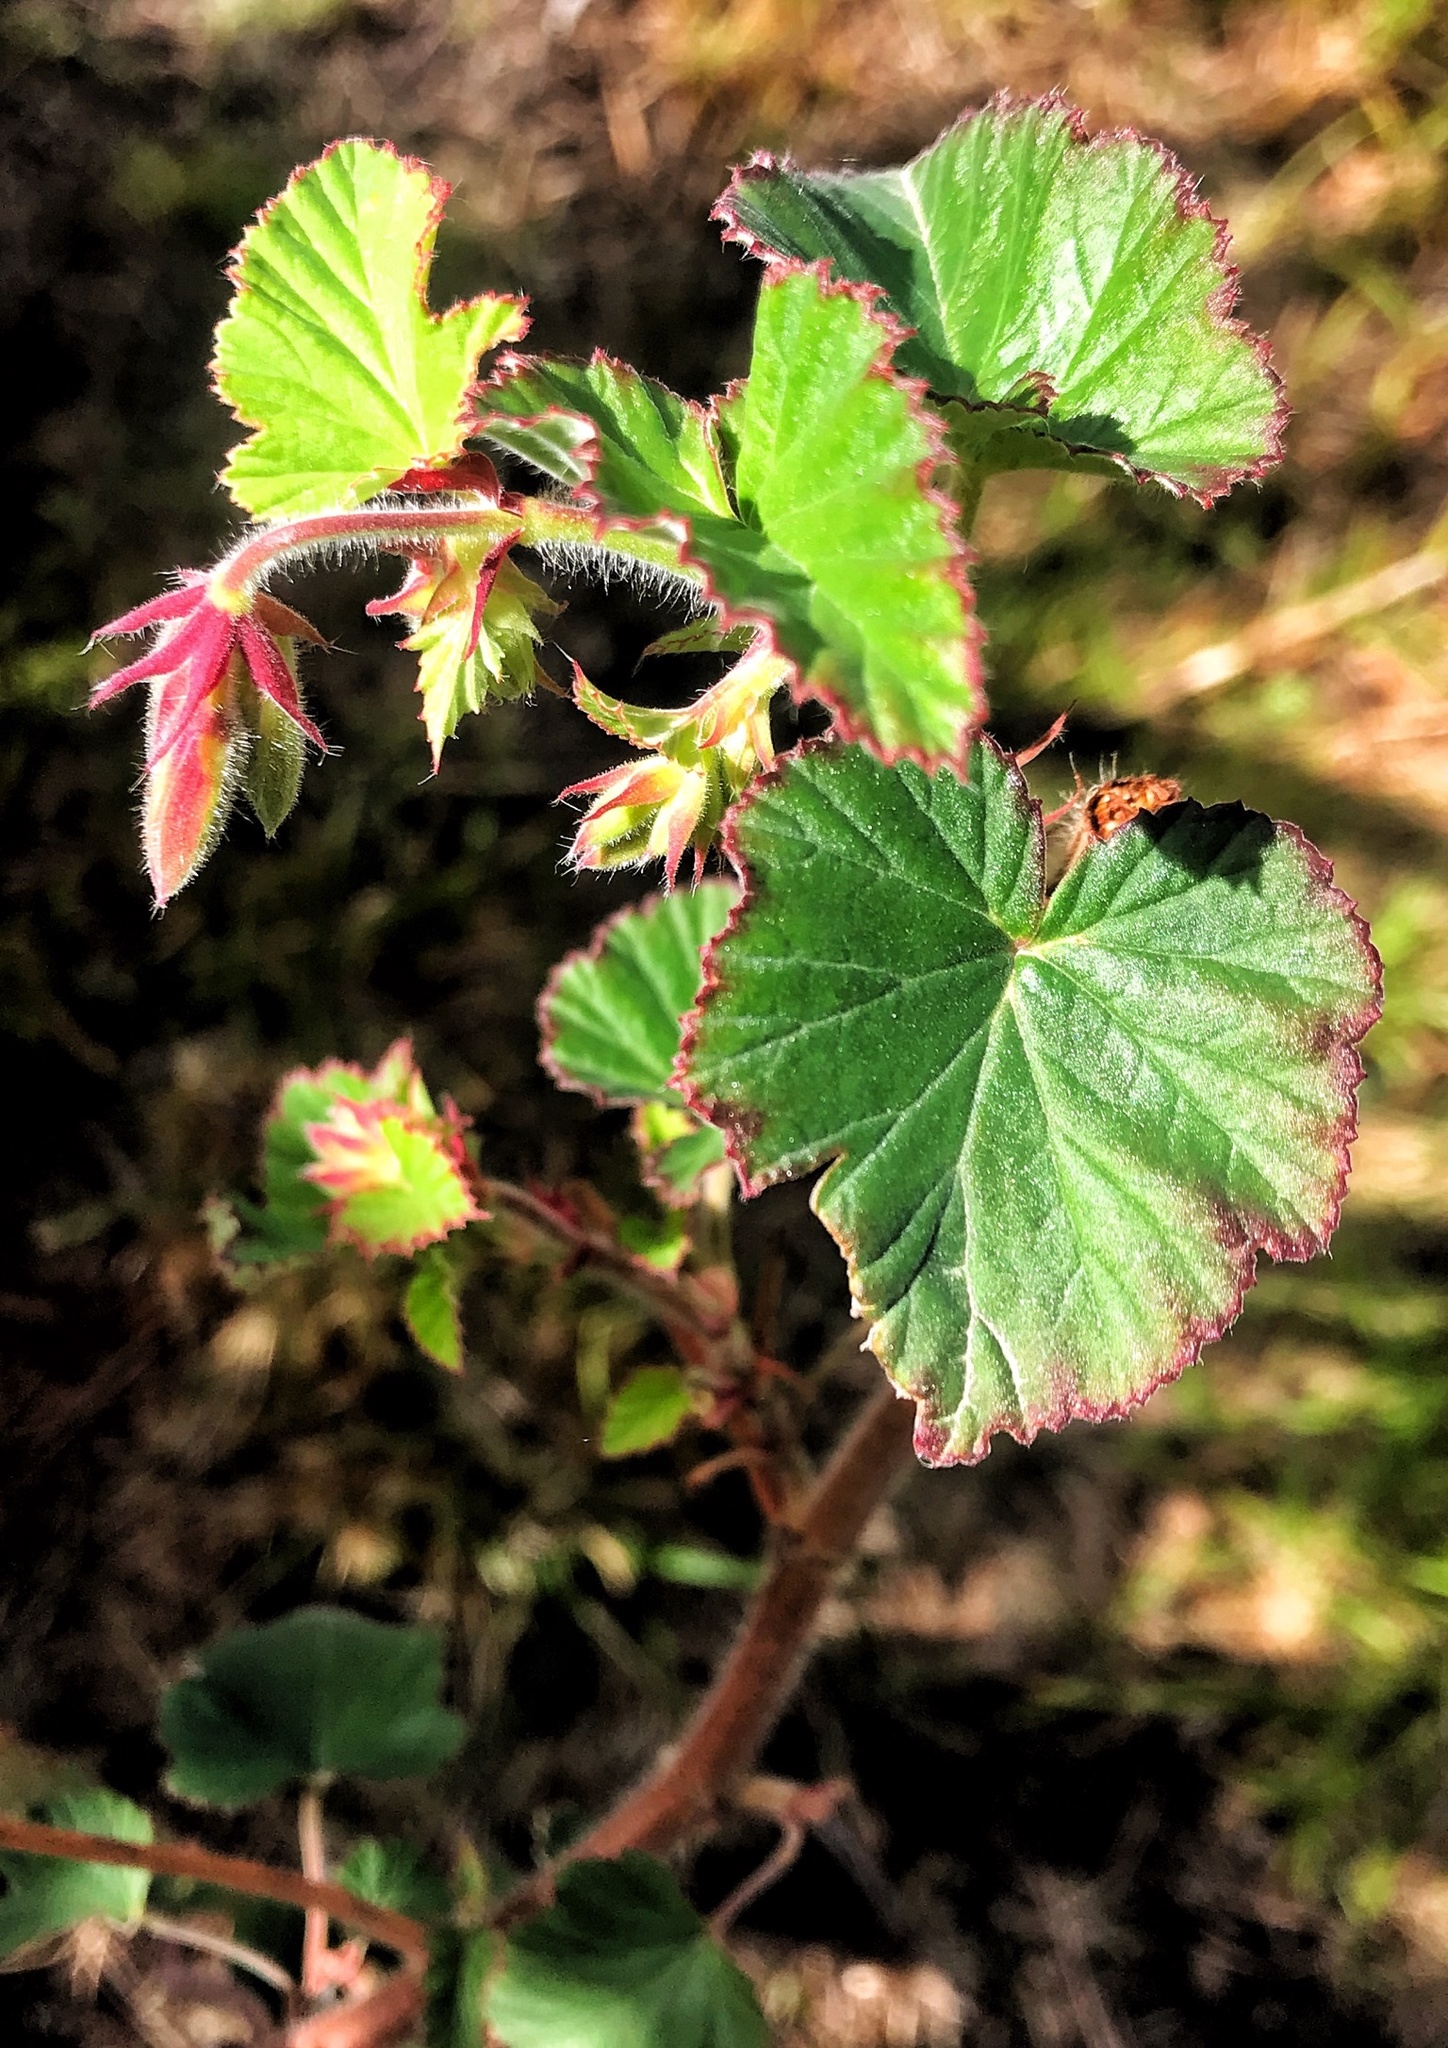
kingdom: Plantae
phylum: Tracheophyta
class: Magnoliopsida
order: Geraniales
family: Geraniaceae
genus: Pelargonium
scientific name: Pelargonium cordifolium
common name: Heart-leaf pelargonium
